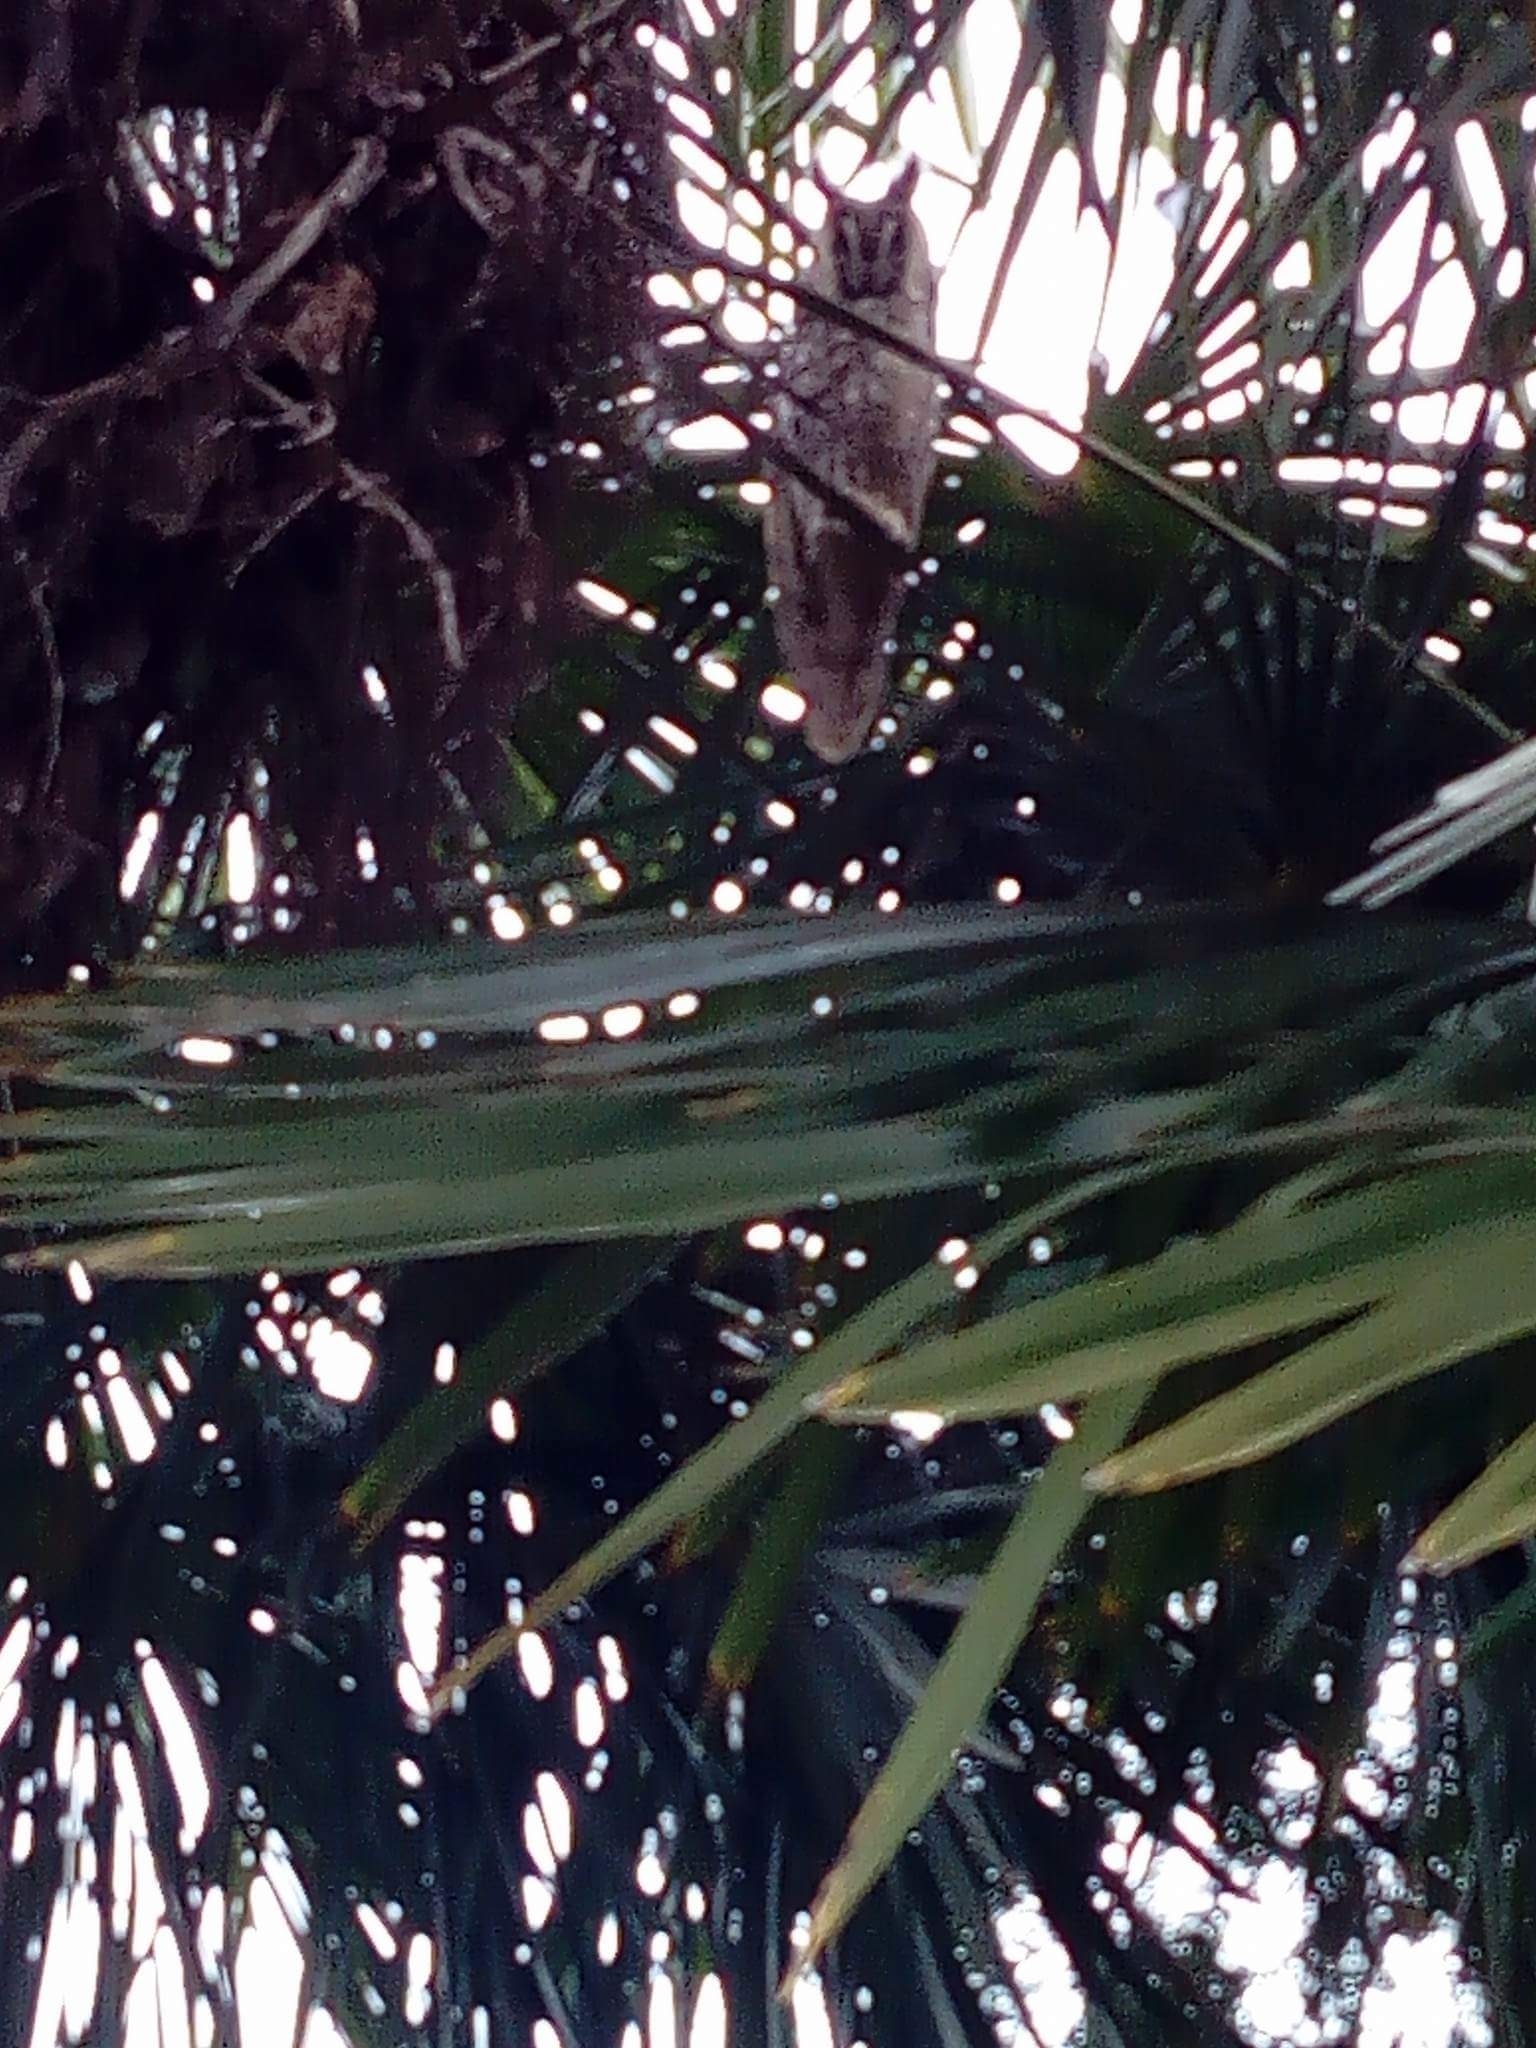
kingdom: Animalia
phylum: Chordata
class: Aves
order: Strigiformes
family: Strigidae
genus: Asio
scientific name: Asio otus
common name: Long-eared owl
